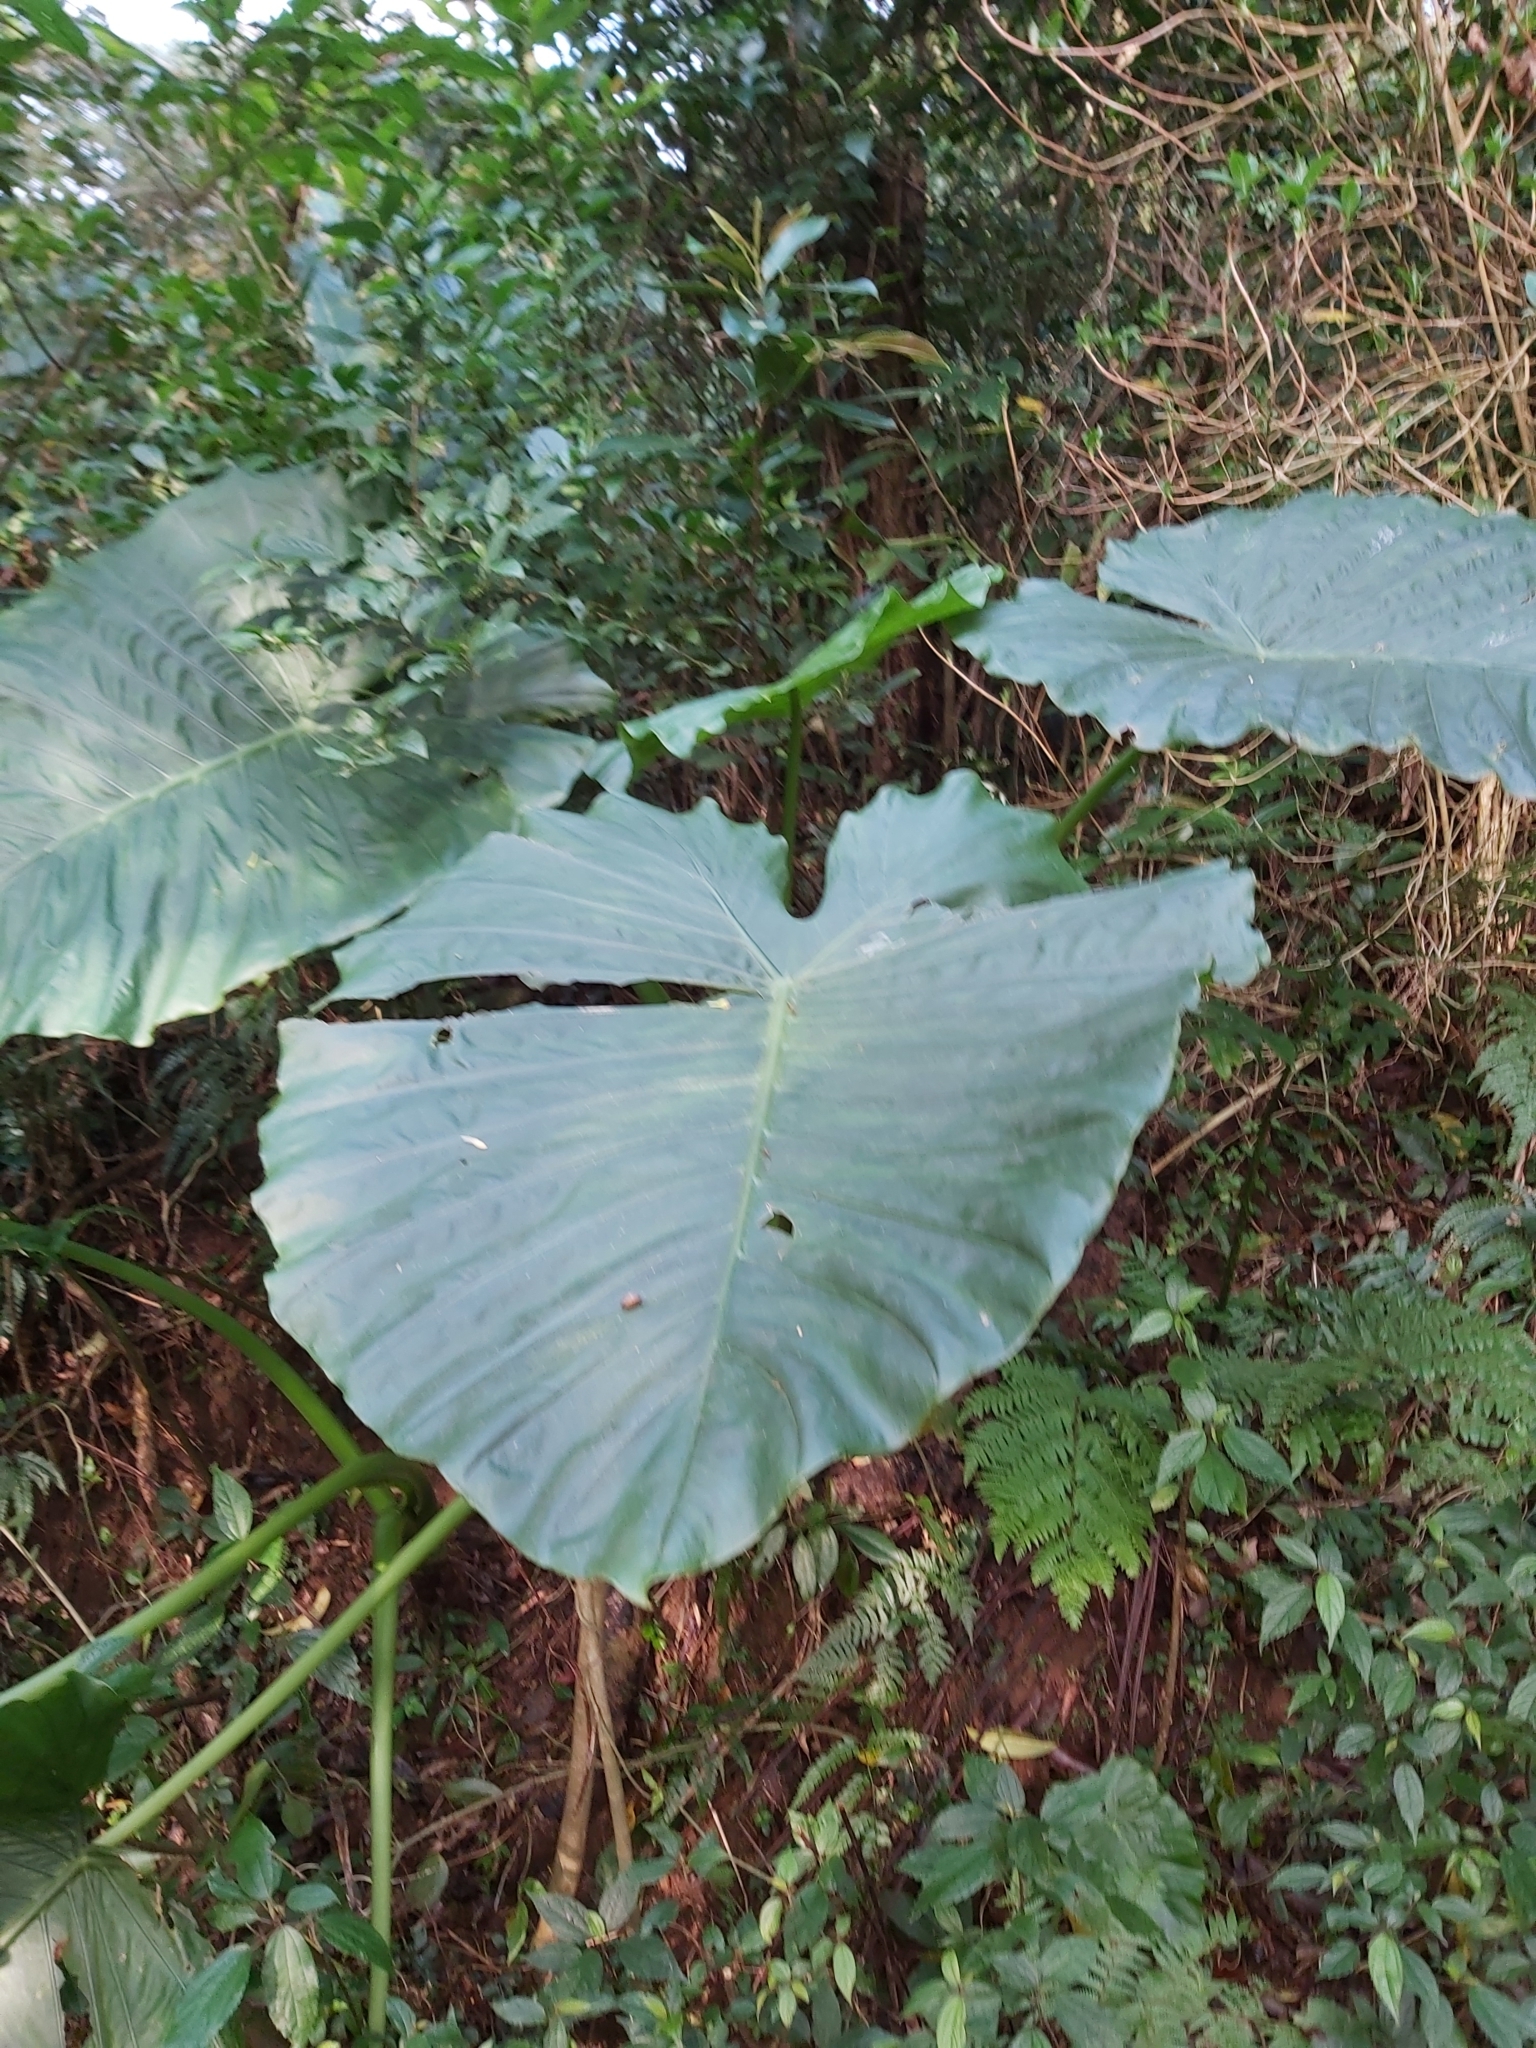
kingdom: Plantae
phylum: Tracheophyta
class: Liliopsida
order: Alismatales
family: Araceae
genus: Alocasia
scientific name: Alocasia odora
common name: Asian taro
